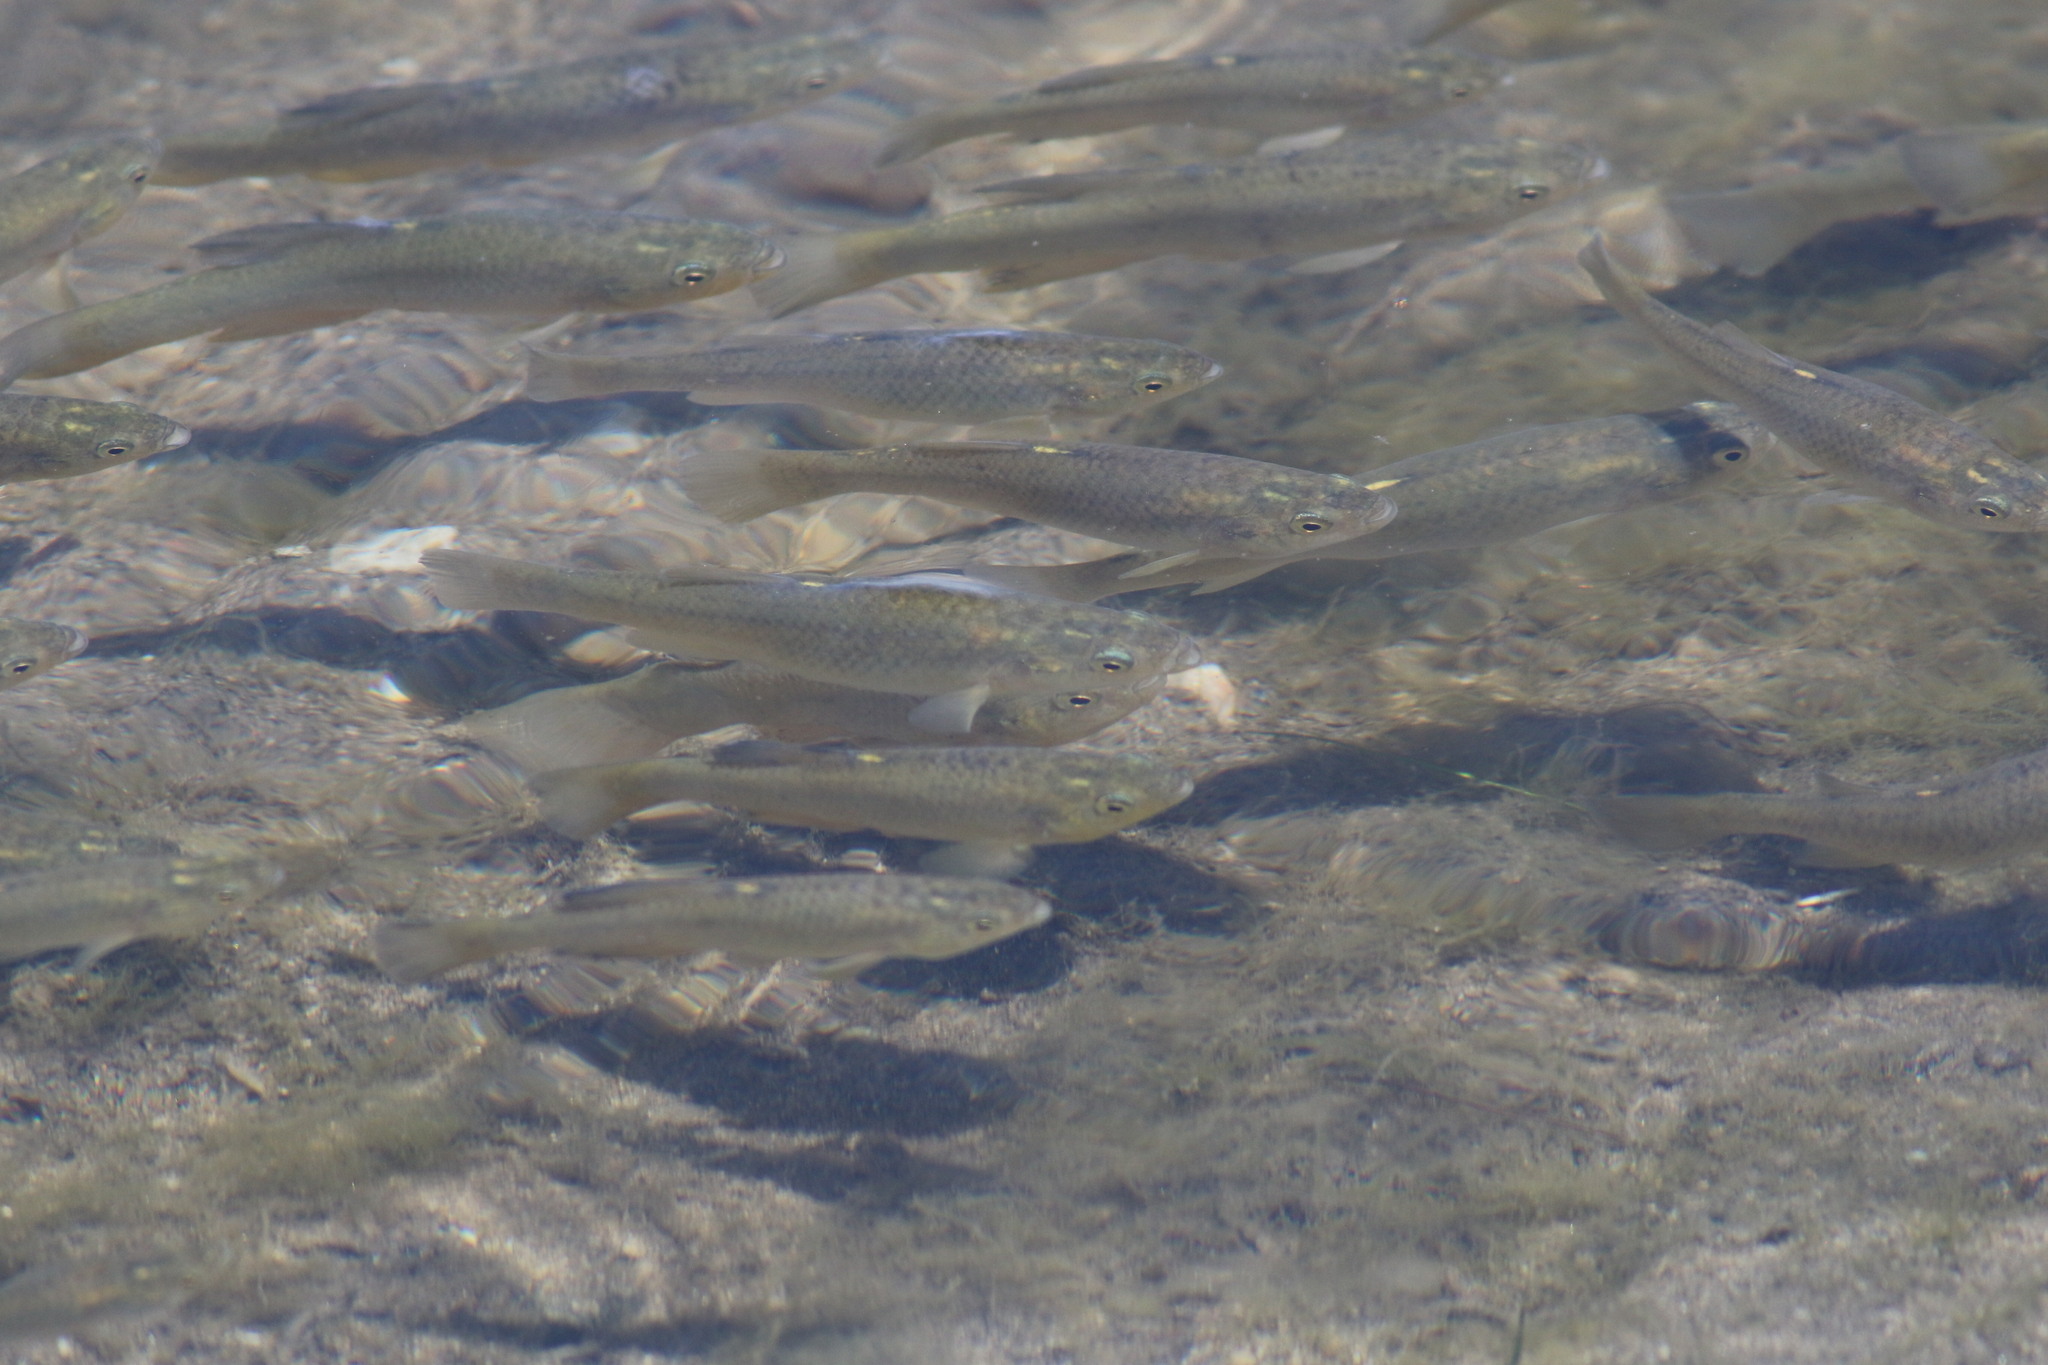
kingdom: Animalia
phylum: Chordata
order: Cyprinodontiformes
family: Fundulidae
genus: Fundulus
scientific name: Fundulus parvipinnis
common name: California killifish
